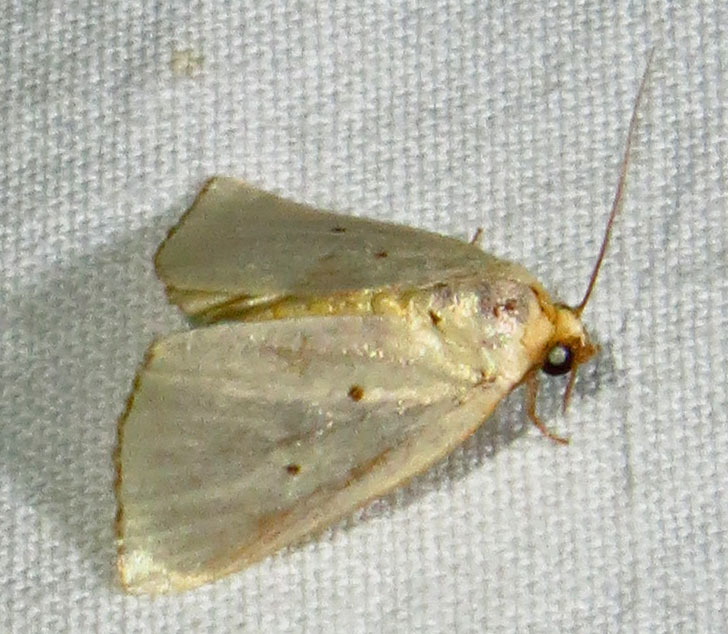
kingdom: Animalia
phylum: Arthropoda
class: Insecta
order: Lepidoptera
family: Noctuidae
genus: Marimatha
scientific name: Marimatha nigrofimbria
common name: Black-bordered lemon moth
